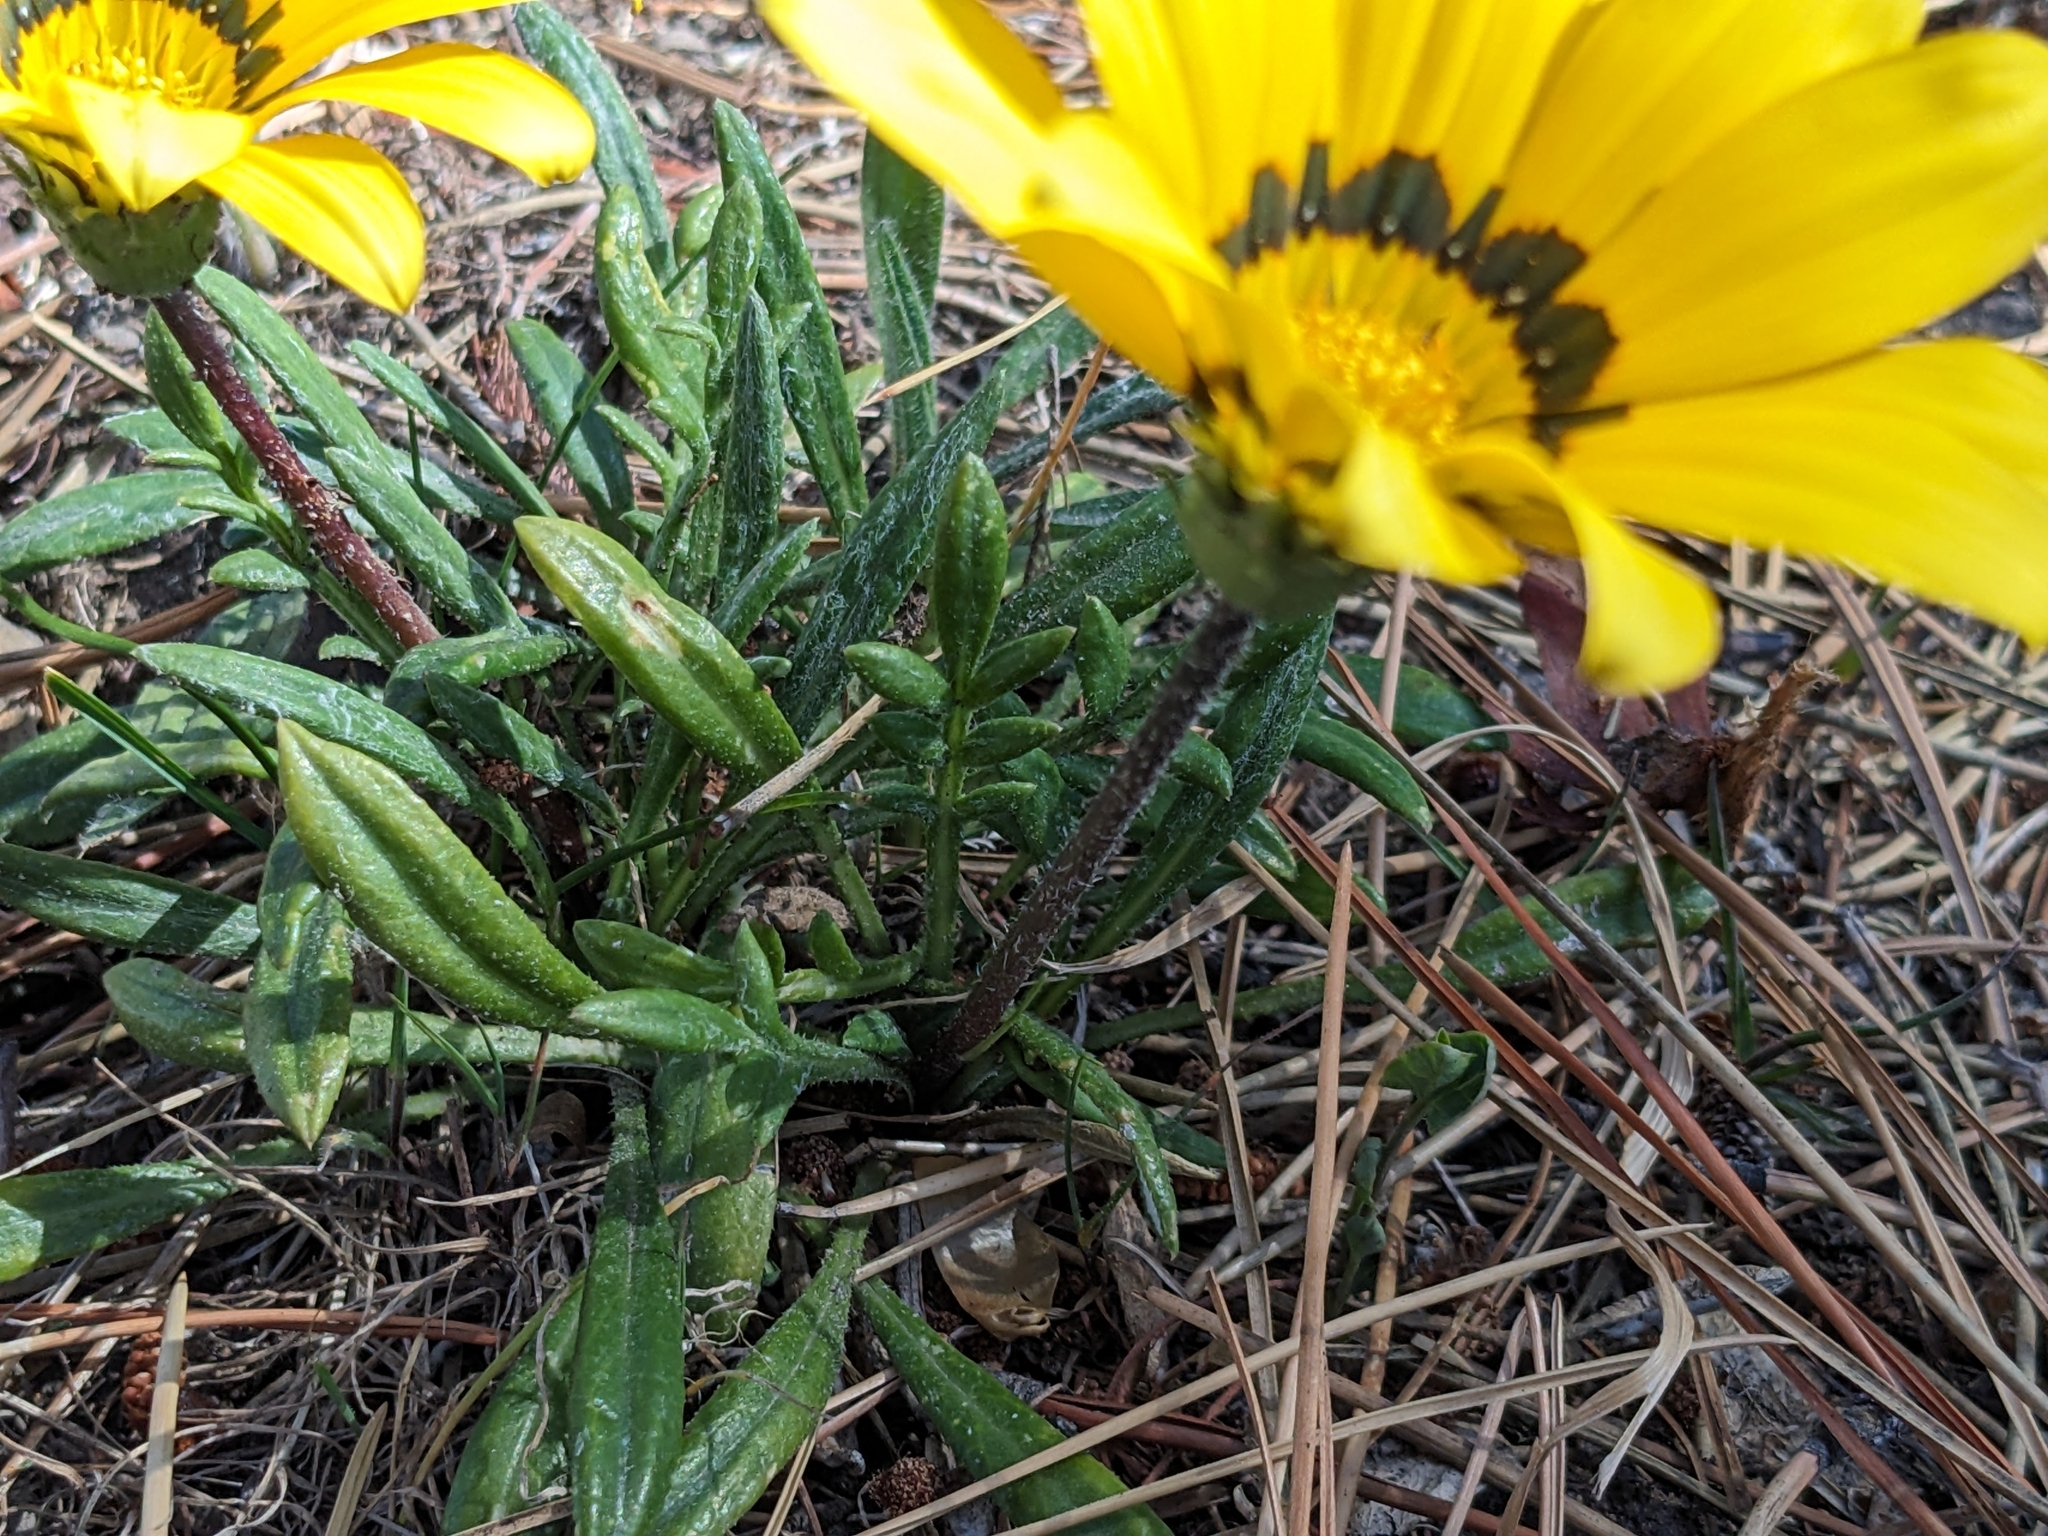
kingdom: Plantae
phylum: Tracheophyta
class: Magnoliopsida
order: Asterales
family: Asteraceae
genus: Gazania
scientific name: Gazania splendens
